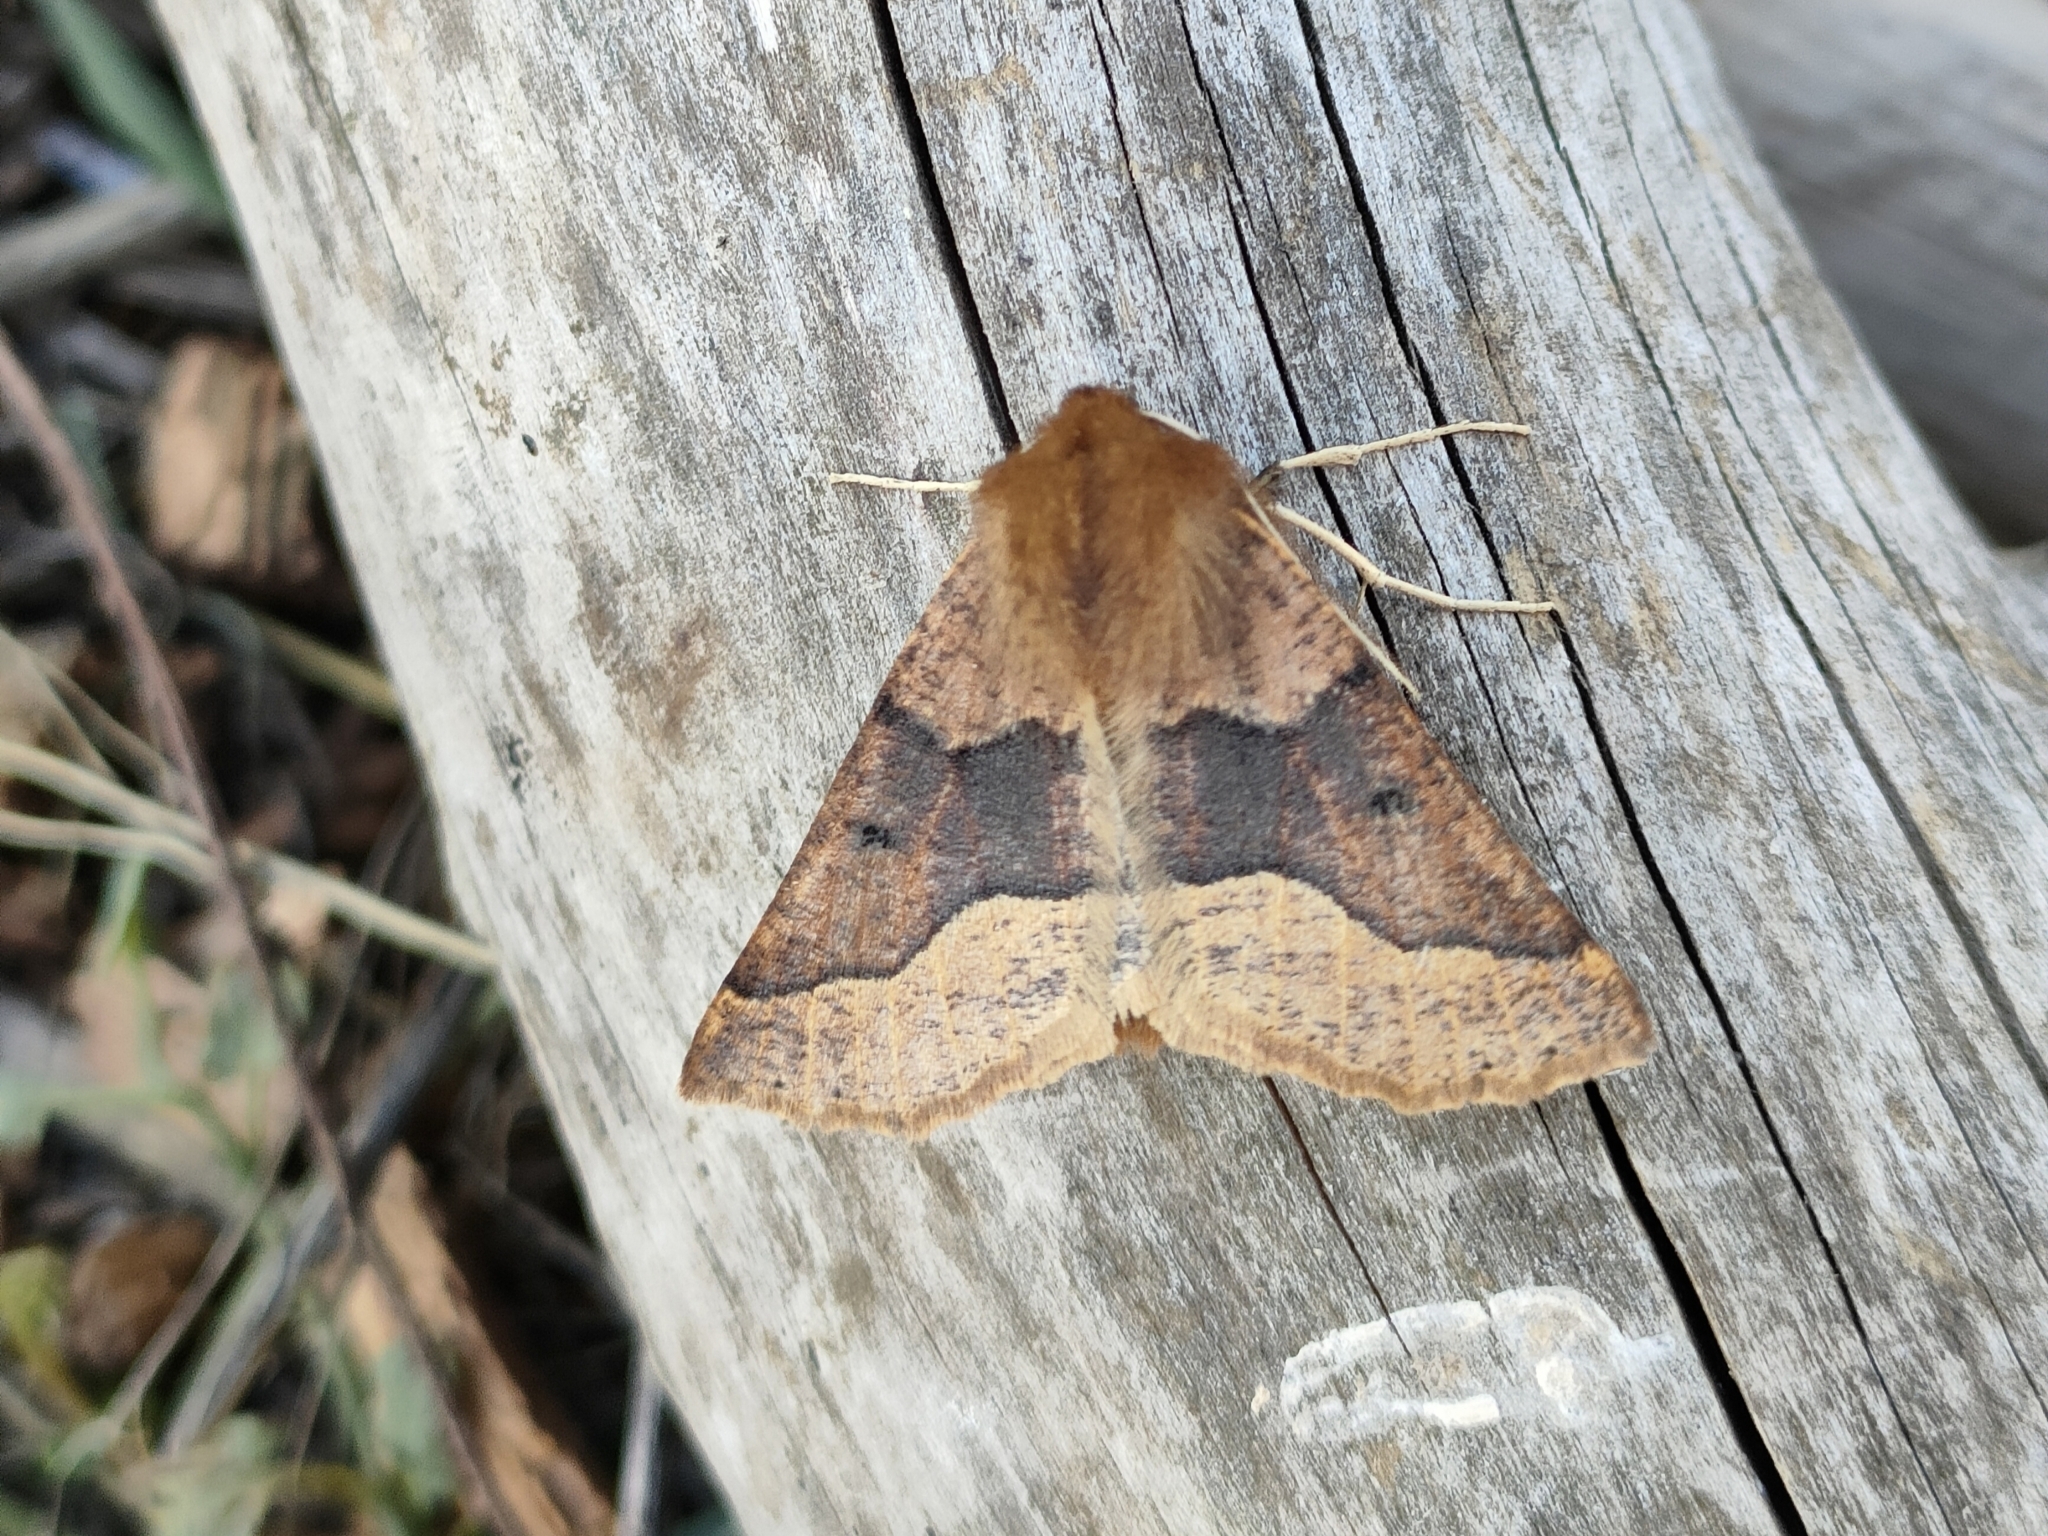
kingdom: Animalia
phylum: Arthropoda
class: Insecta
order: Lepidoptera
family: Geometridae
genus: Crocallis
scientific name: Crocallis tusciaria
